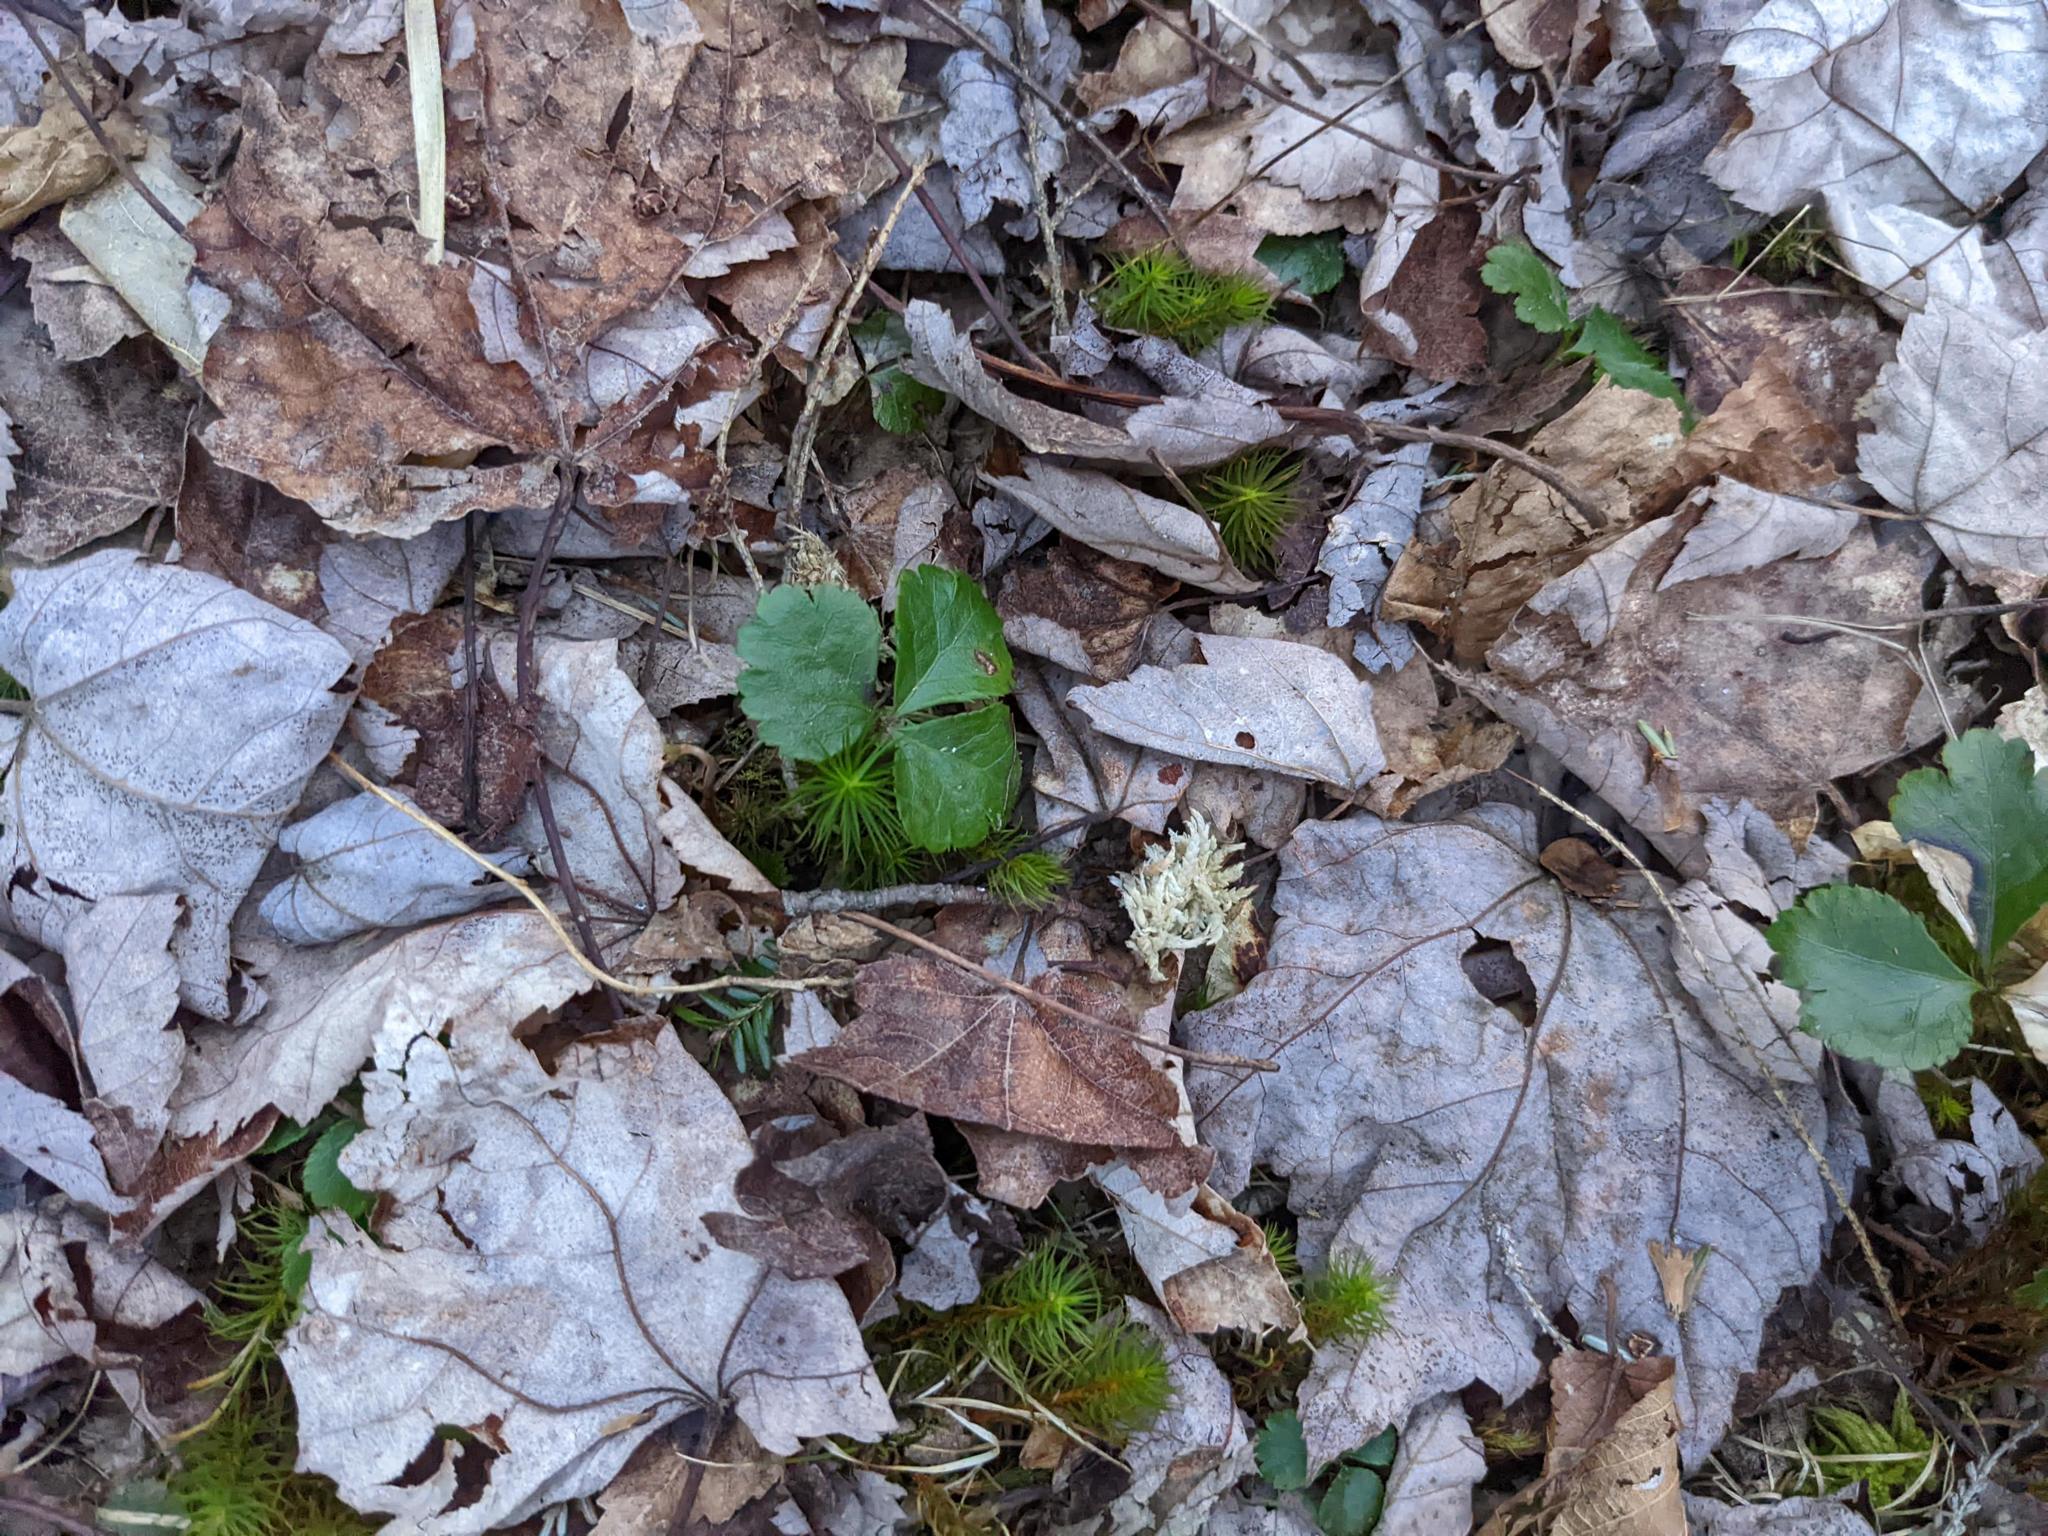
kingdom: Plantae
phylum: Tracheophyta
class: Magnoliopsida
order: Ranunculales
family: Ranunculaceae
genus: Coptis
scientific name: Coptis trifolia
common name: Canker-root
